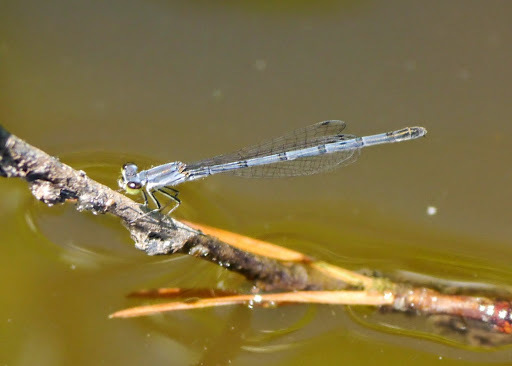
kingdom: Animalia
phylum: Arthropoda
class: Insecta
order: Odonata
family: Coenagrionidae
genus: Ischnura
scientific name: Ischnura verticalis
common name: Eastern forktail
